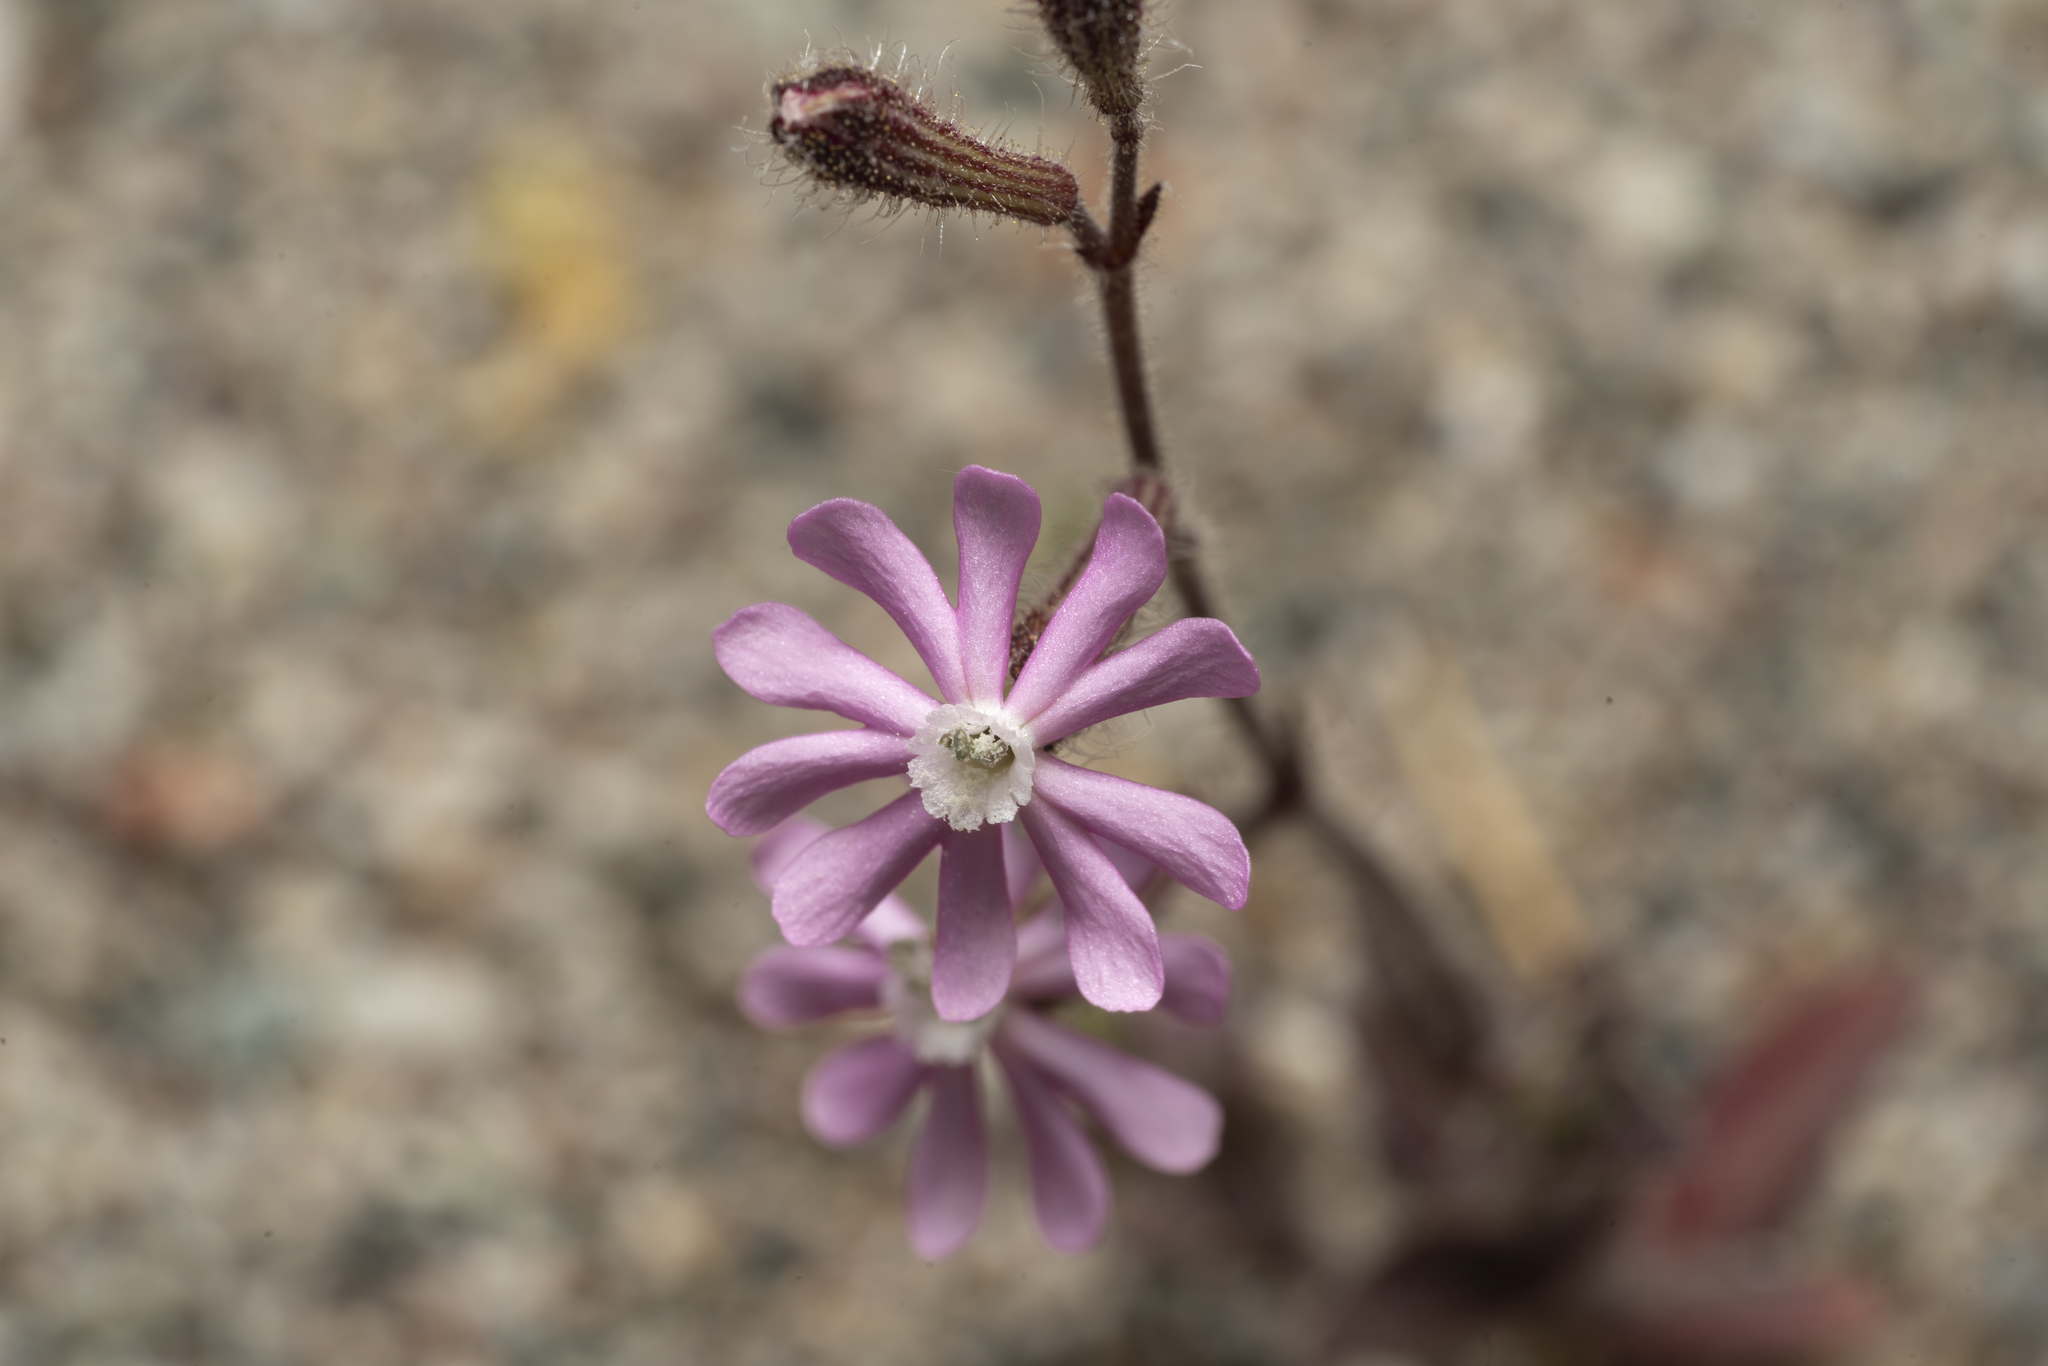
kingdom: Plantae
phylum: Tracheophyta
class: Magnoliopsida
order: Caryophyllales
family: Caryophyllaceae
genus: Silene
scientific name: Silene discolor
